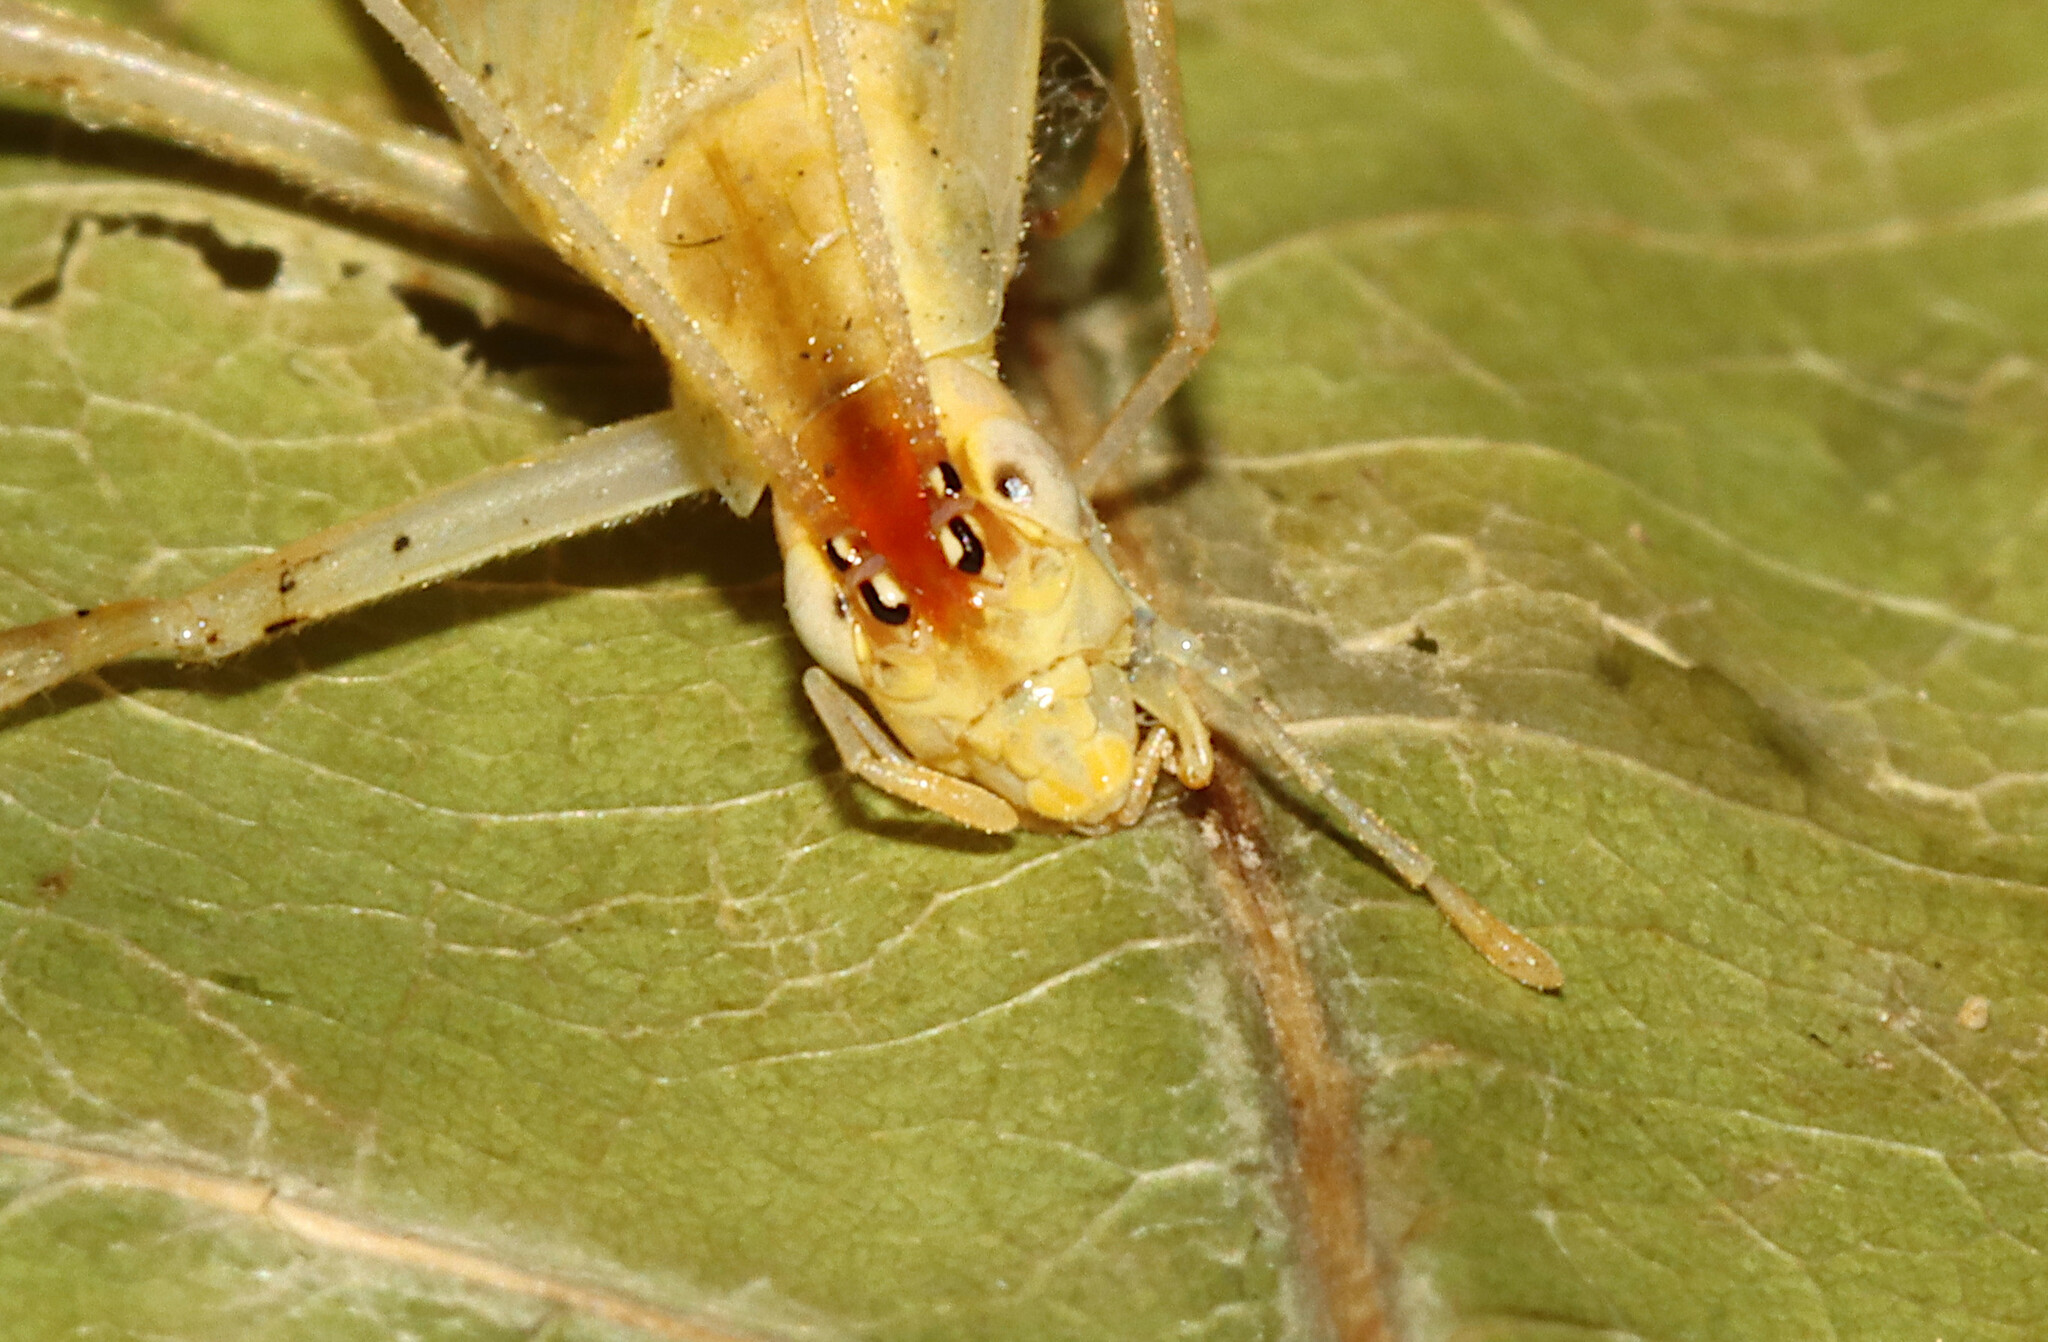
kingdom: Animalia
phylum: Arthropoda
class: Insecta
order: Orthoptera
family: Gryllidae
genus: Oecanthus
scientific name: Oecanthus niveus
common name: Narrow-winged tree cricket
